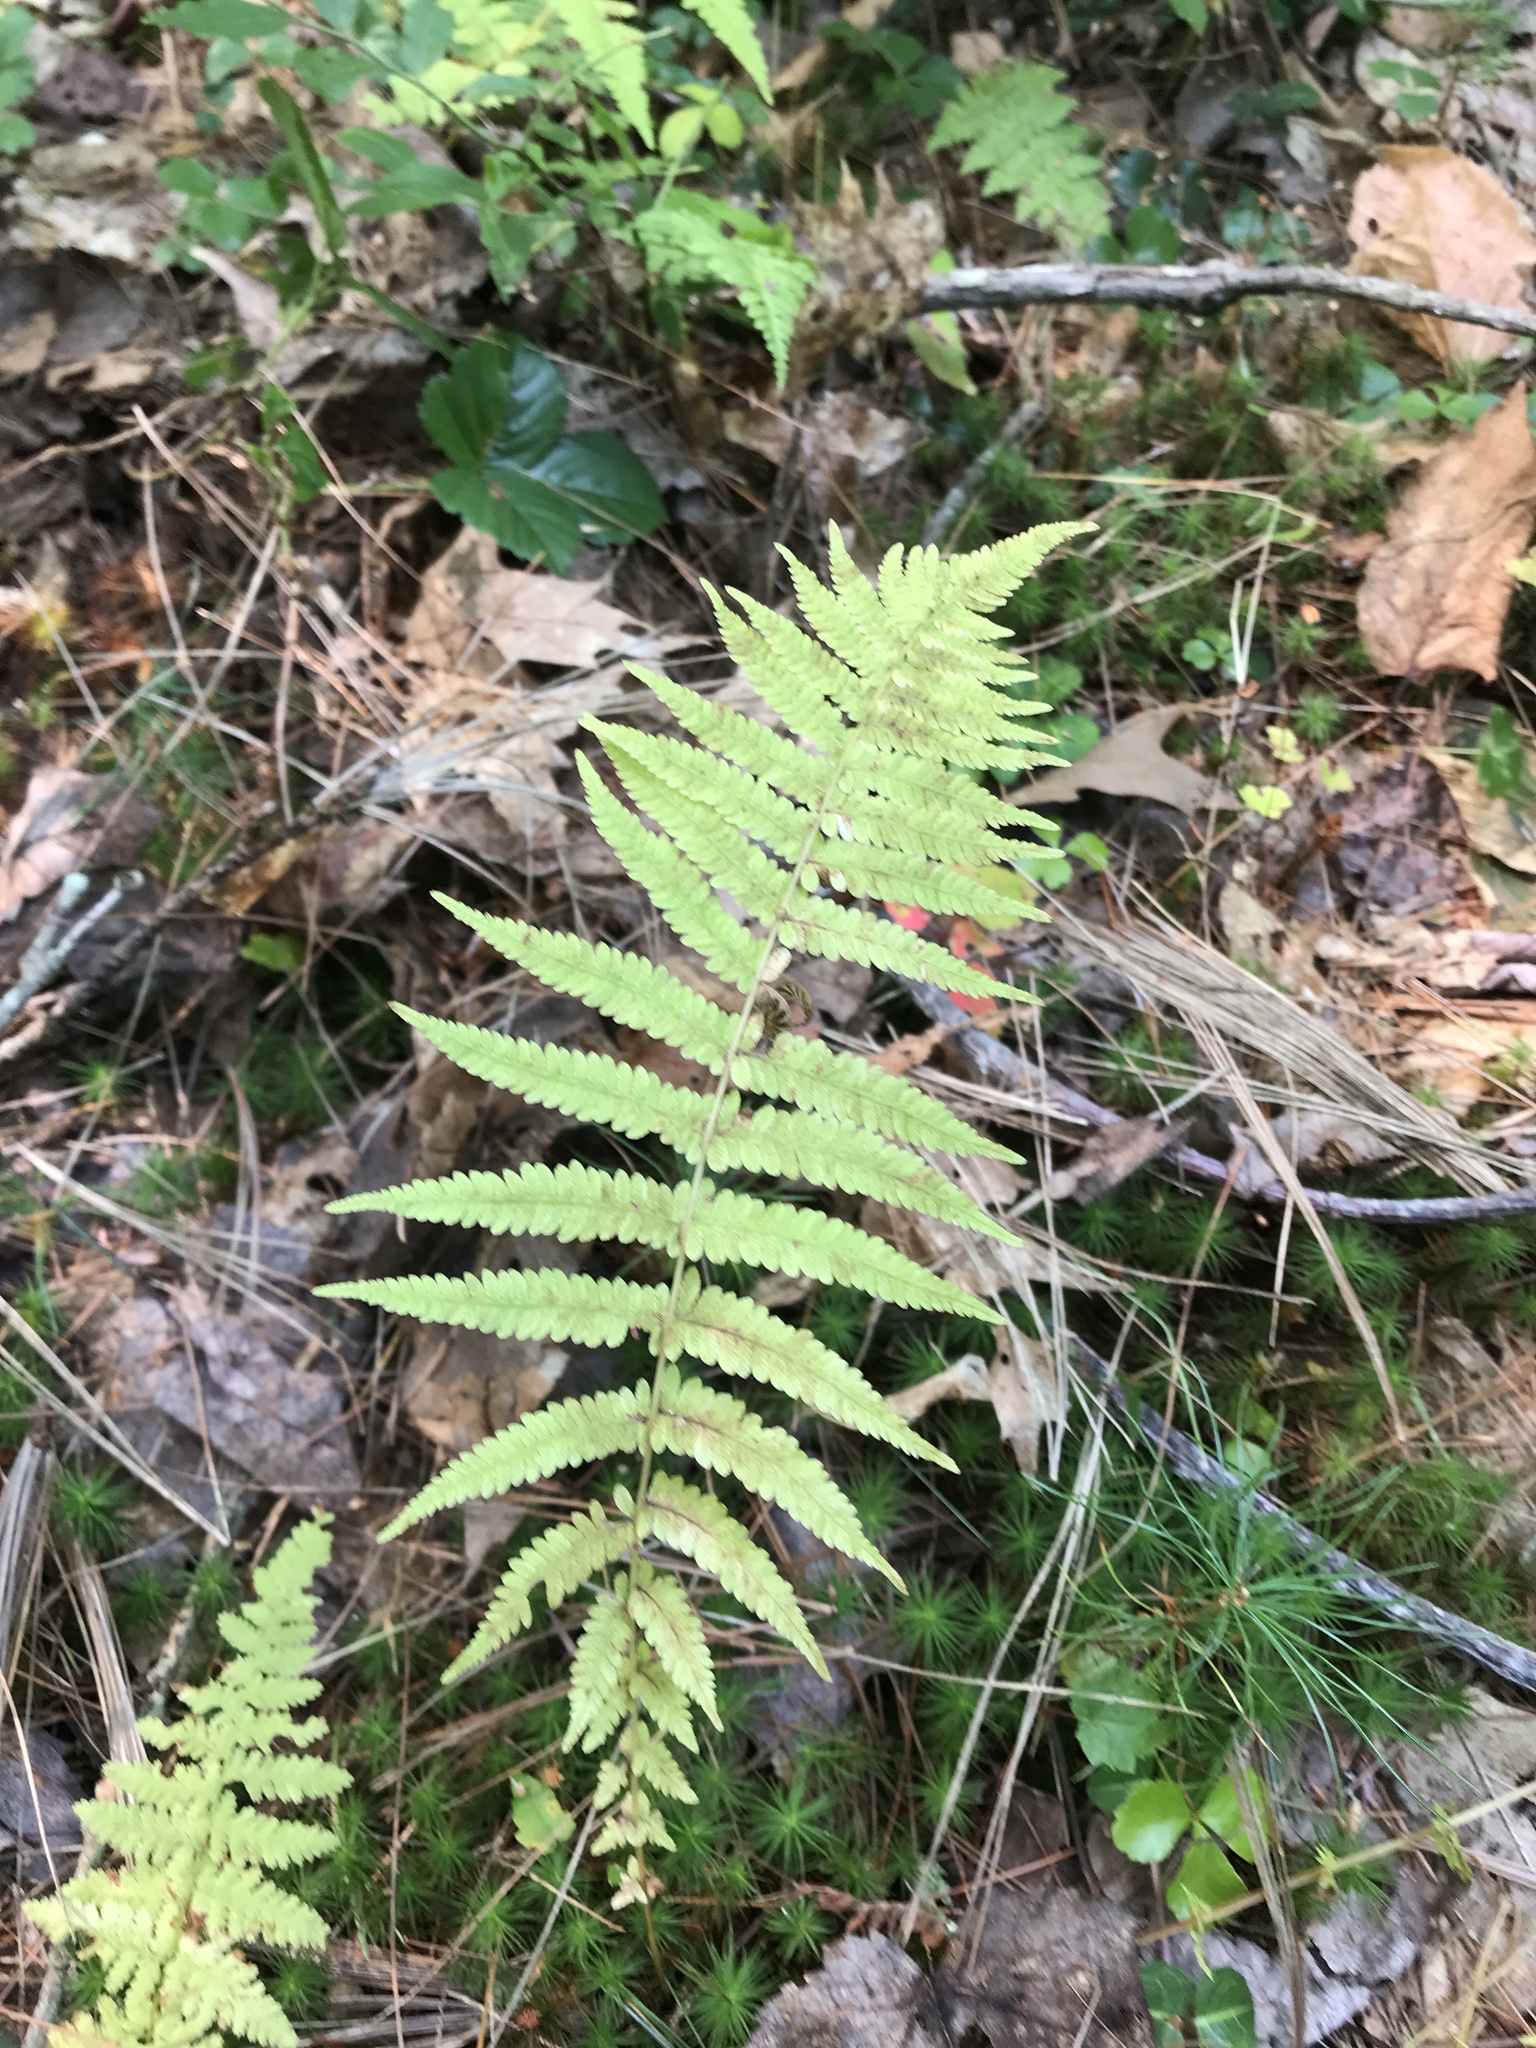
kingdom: Plantae
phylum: Tracheophyta
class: Polypodiopsida
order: Polypodiales
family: Thelypteridaceae
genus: Amauropelta
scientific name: Amauropelta noveboracensis
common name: New york fern
